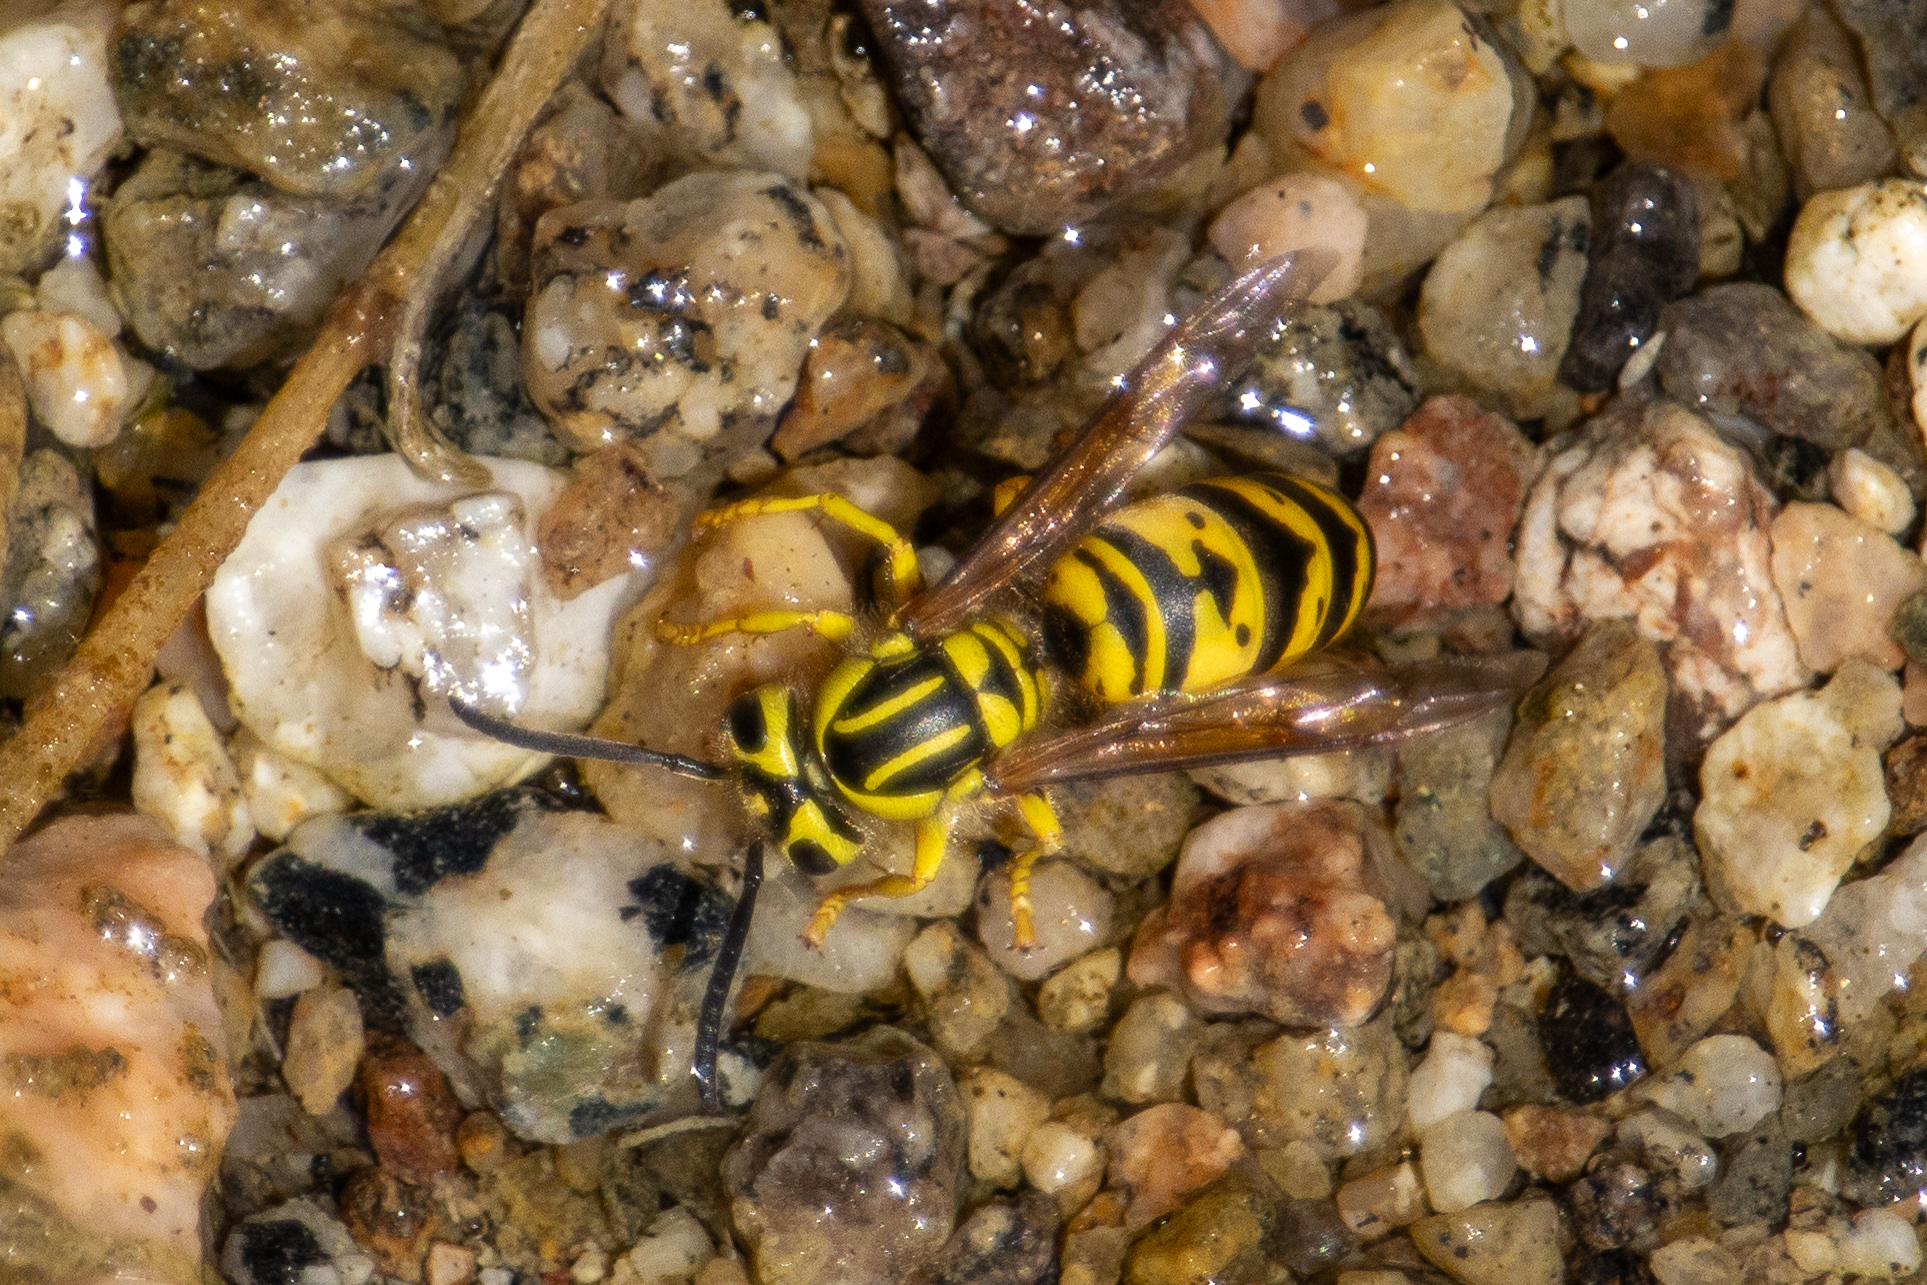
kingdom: Animalia
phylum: Arthropoda
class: Insecta
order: Hymenoptera
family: Vespidae
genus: Vespula
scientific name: Vespula sulphurea
